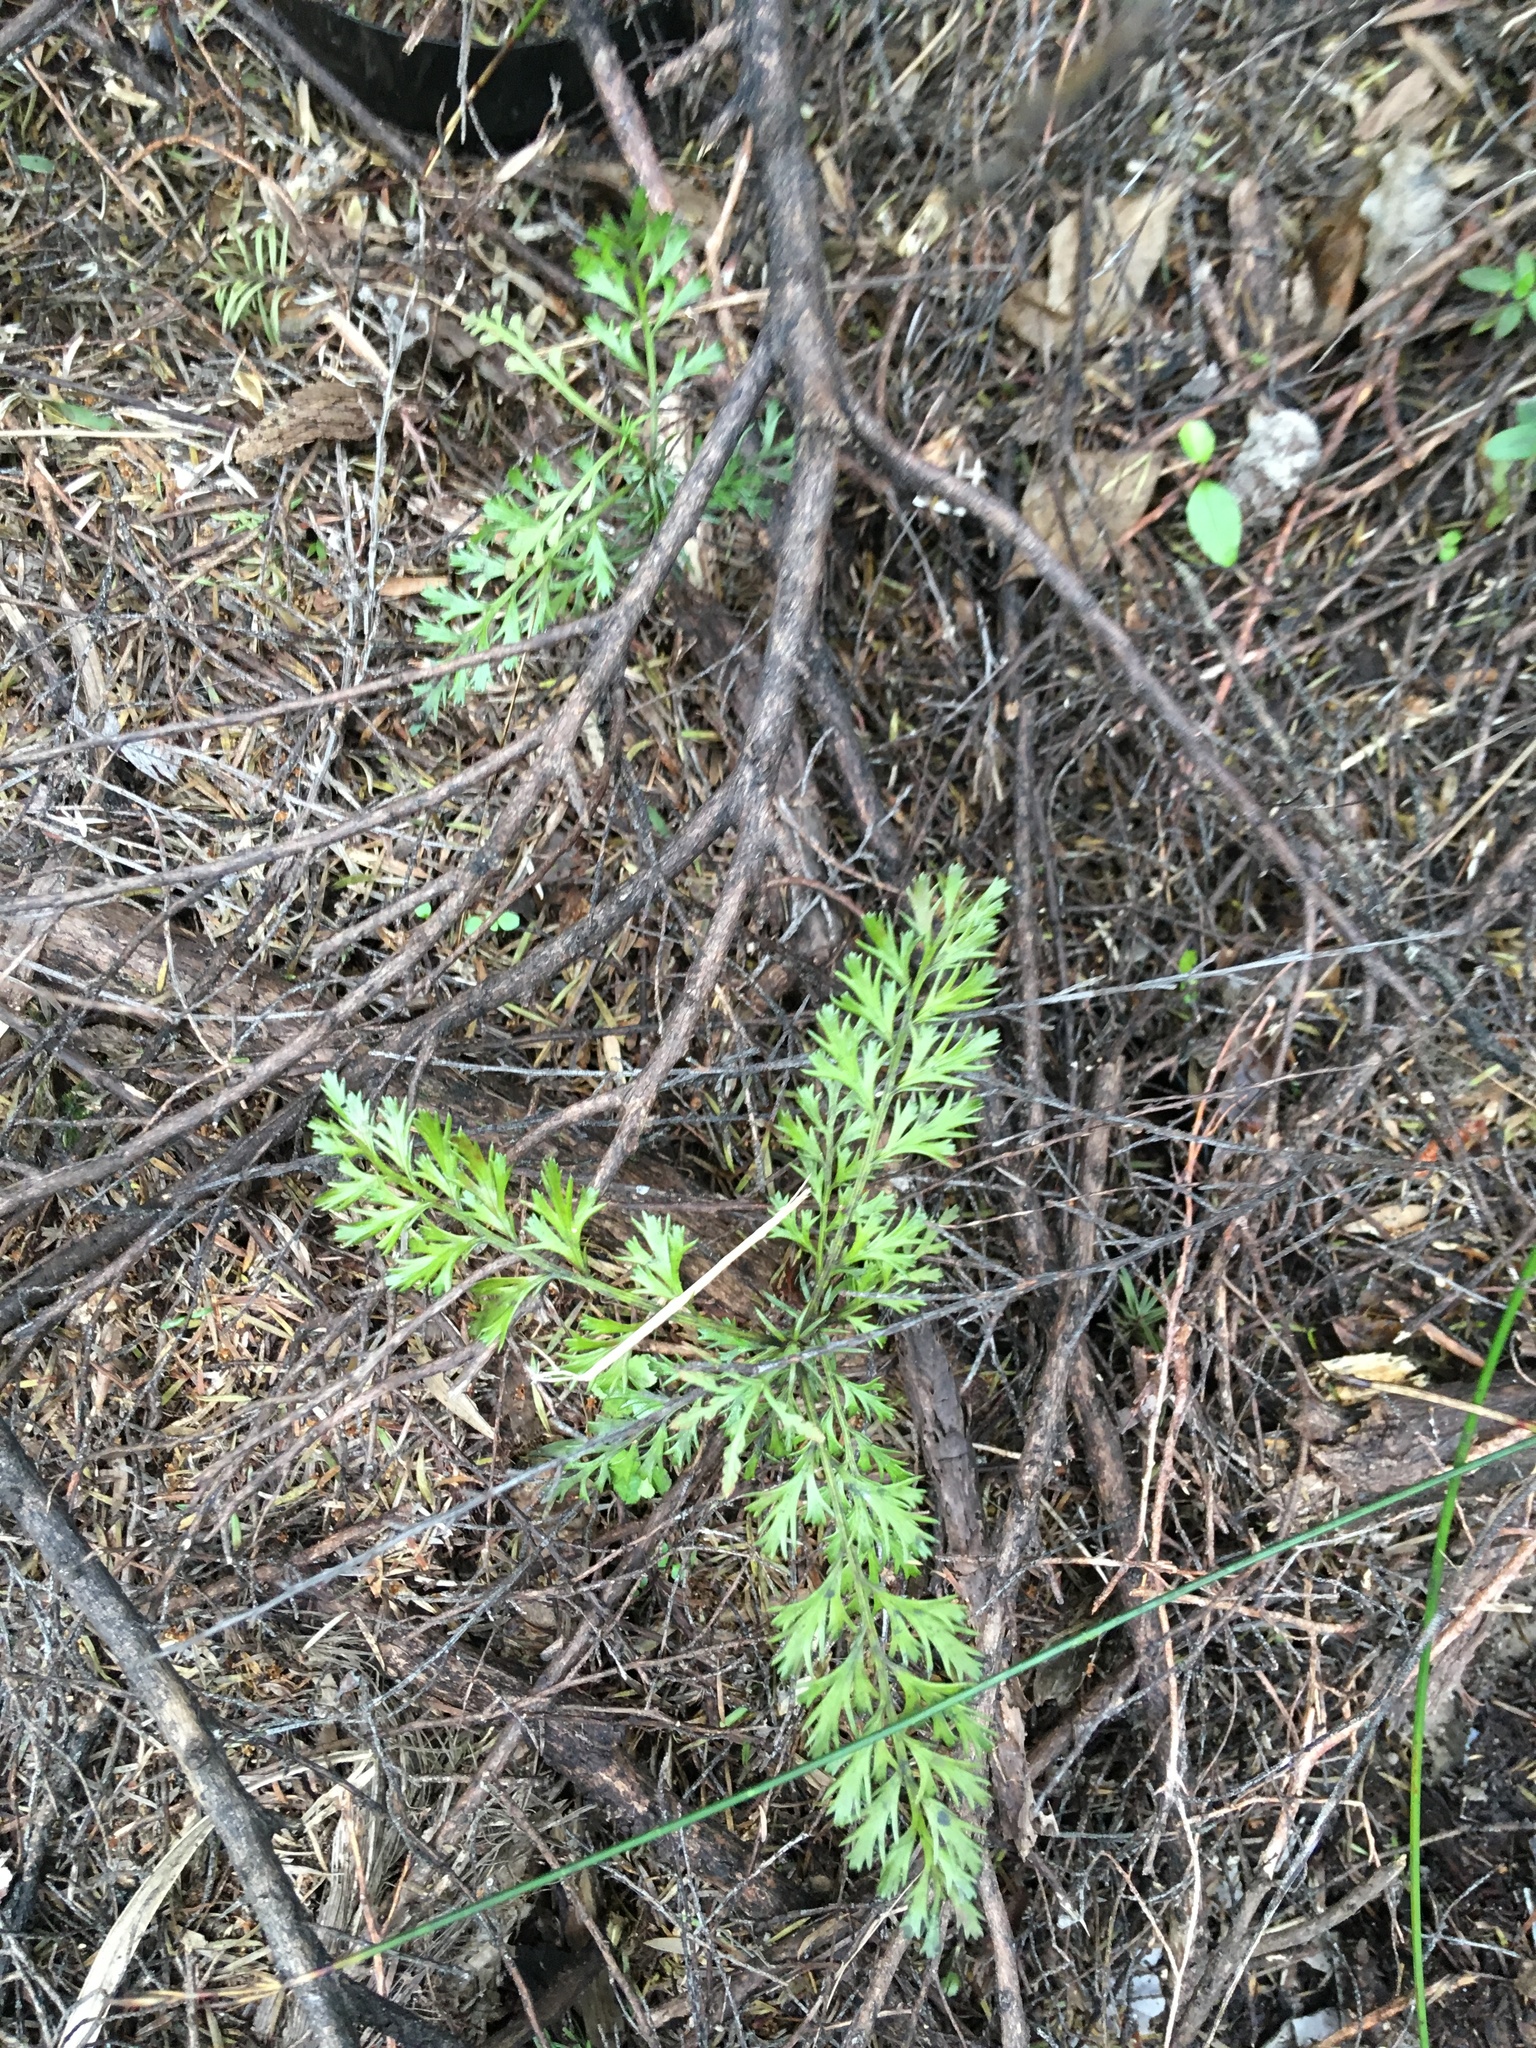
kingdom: Plantae
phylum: Tracheophyta
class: Pinopsida
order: Pinales
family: Phyllocladaceae
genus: Phyllocladus
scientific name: Phyllocladus trichomanoides
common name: Celery pine
